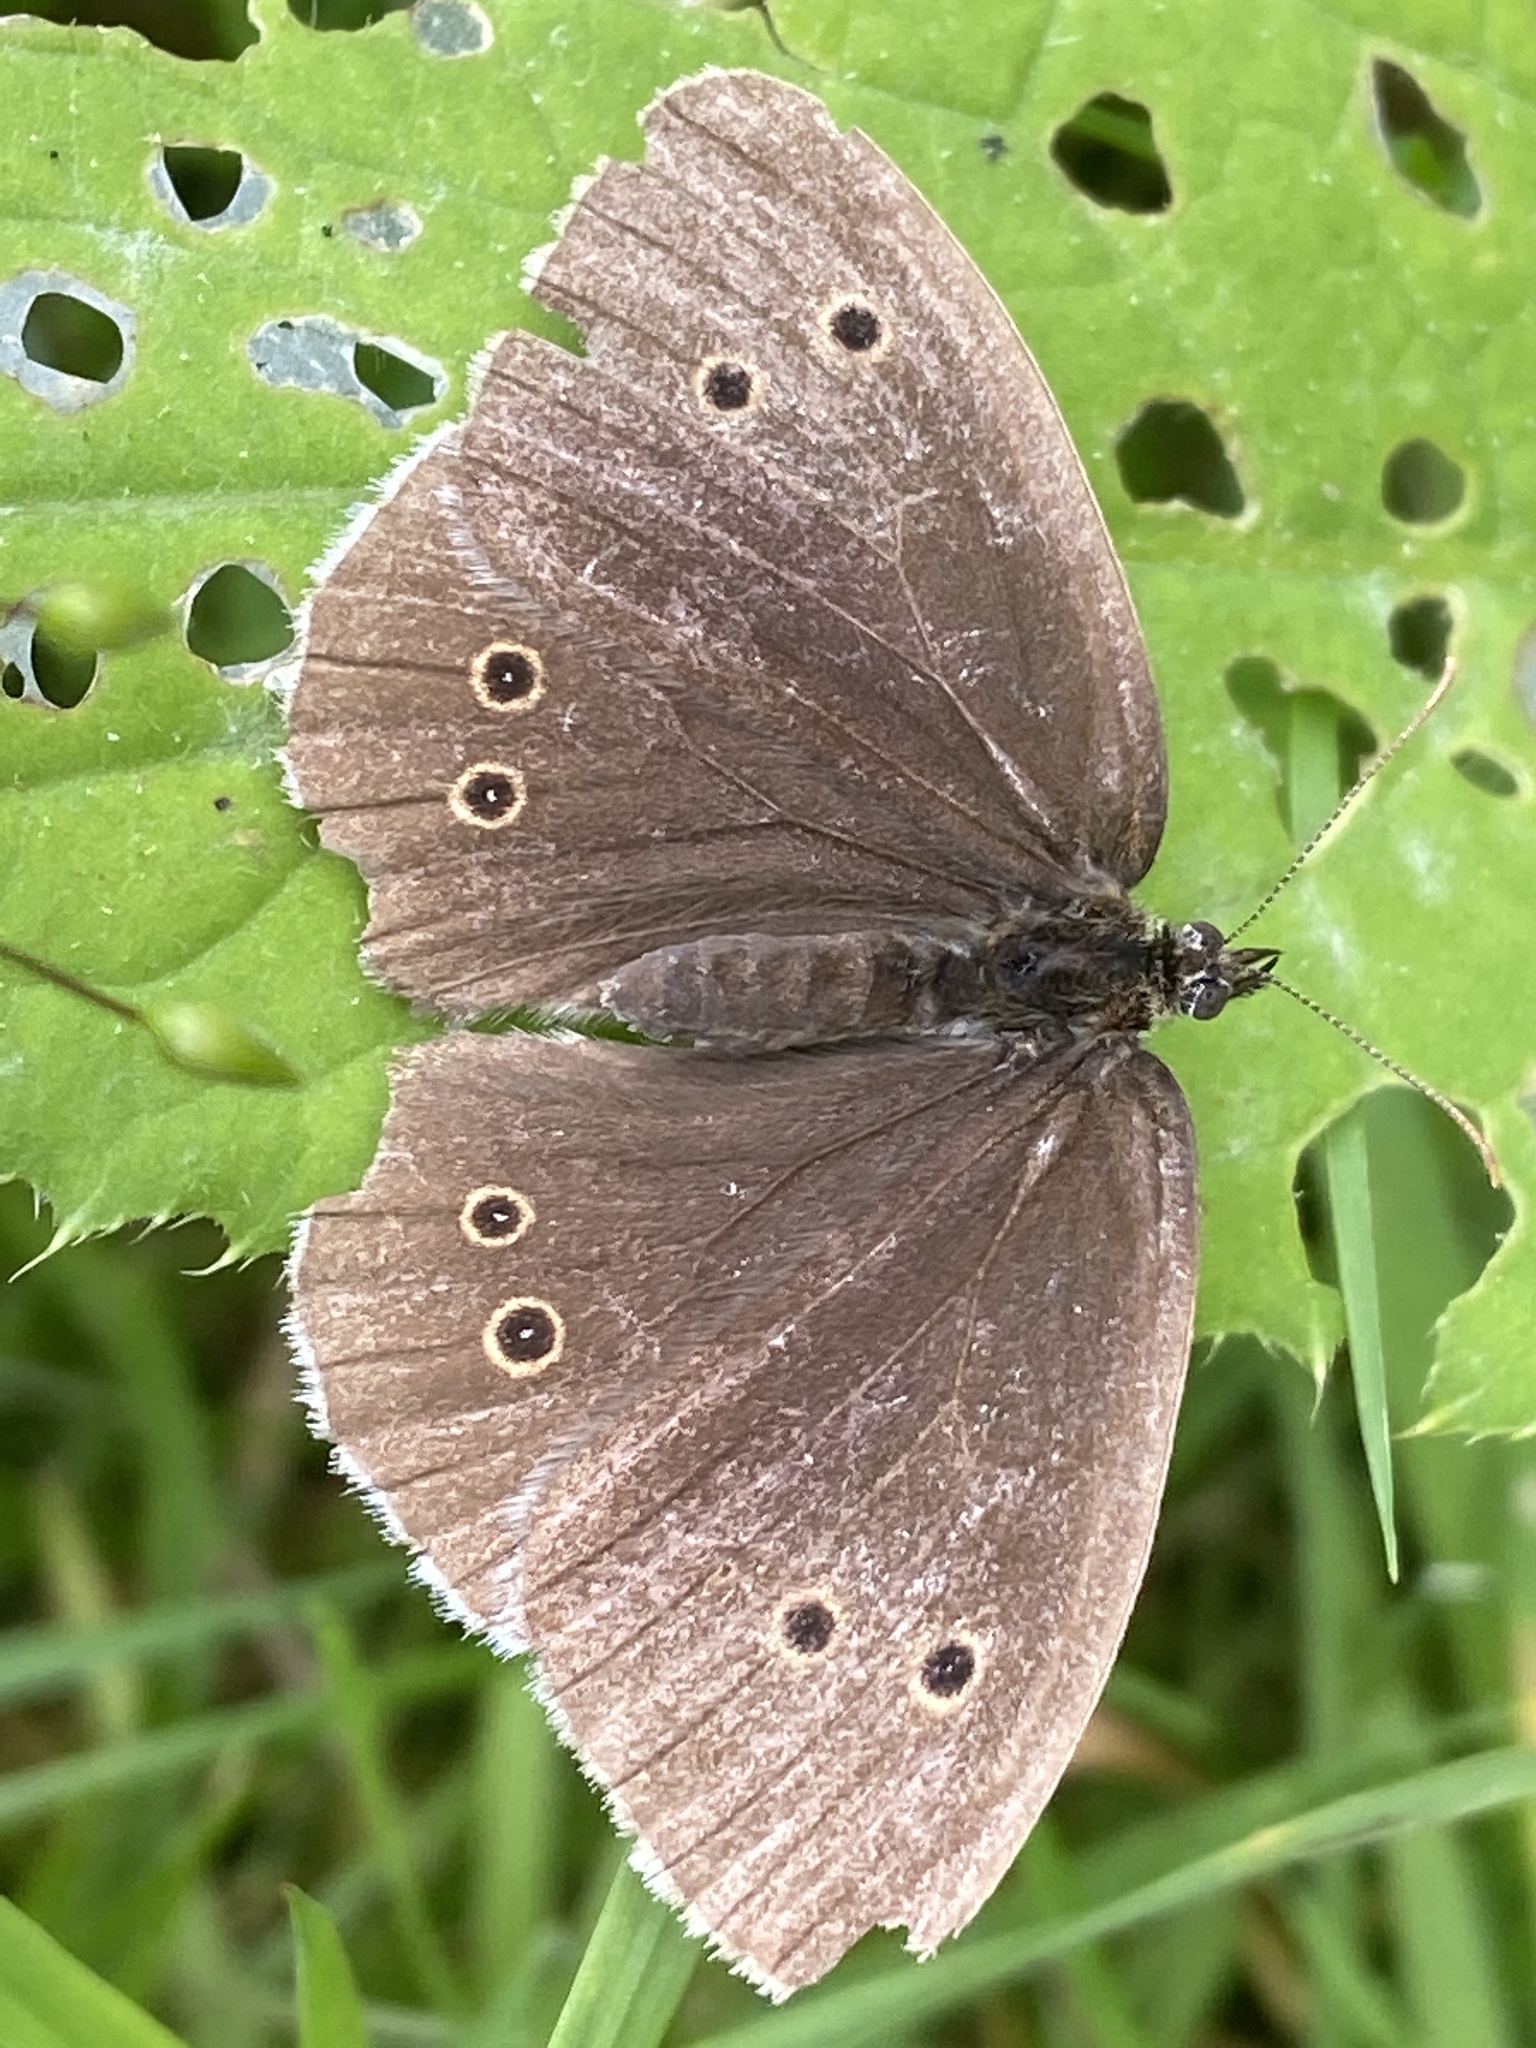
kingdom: Animalia
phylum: Arthropoda
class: Insecta
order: Lepidoptera
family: Nymphalidae
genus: Aphantopus
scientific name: Aphantopus hyperantus
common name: Ringlet
